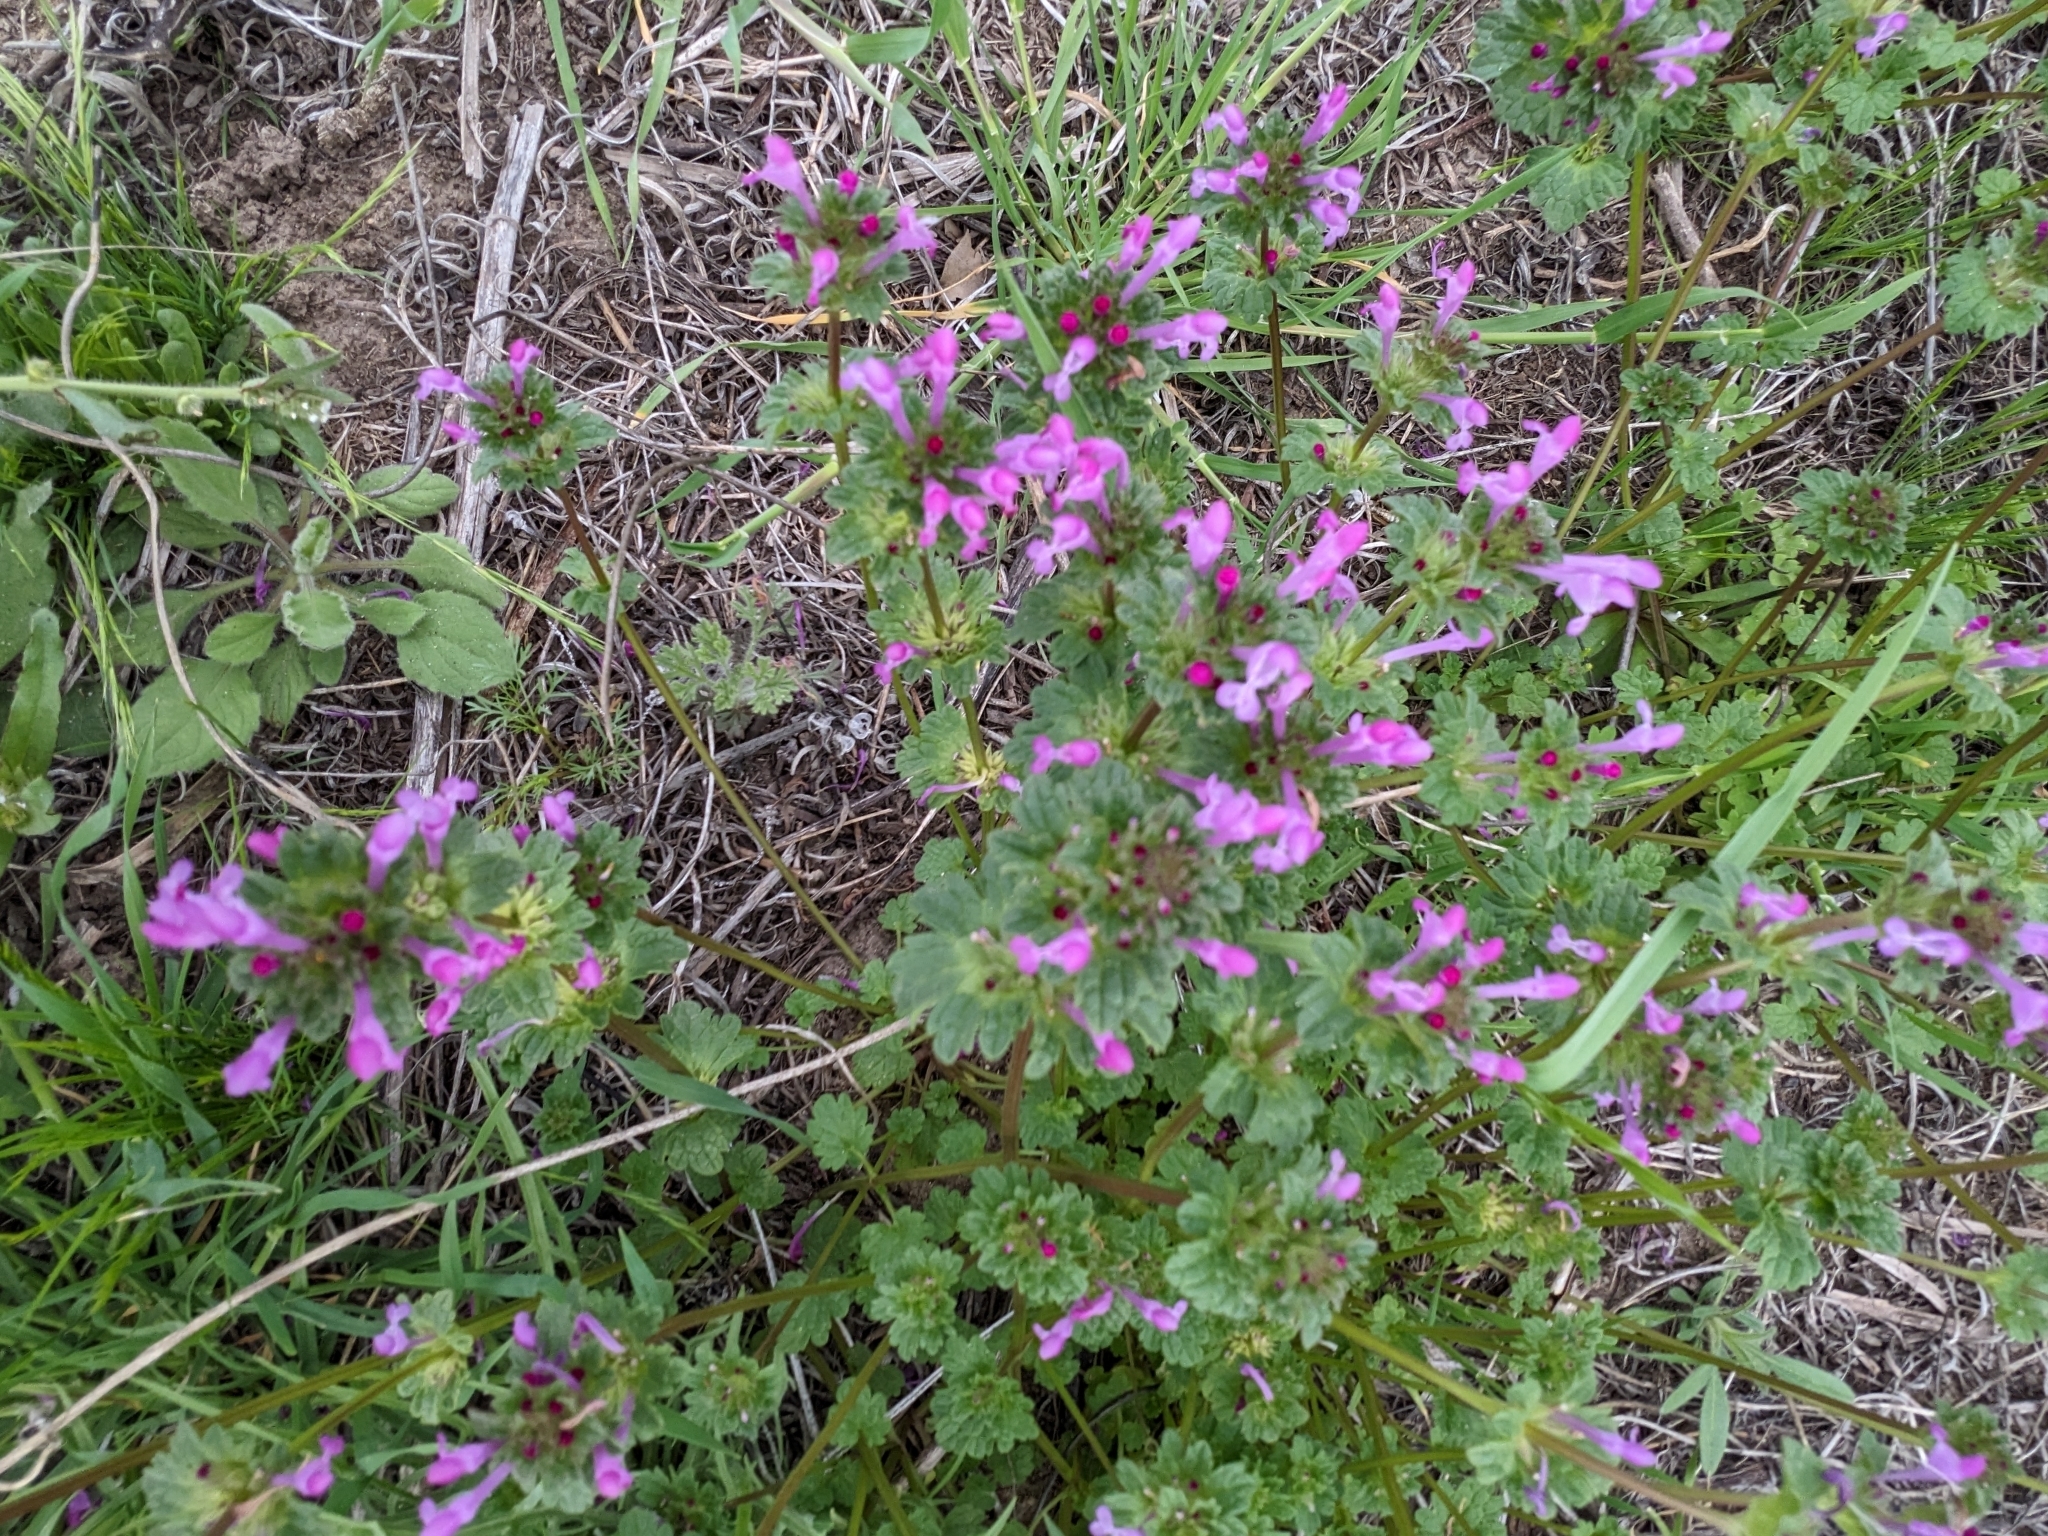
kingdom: Plantae
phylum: Tracheophyta
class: Magnoliopsida
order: Lamiales
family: Lamiaceae
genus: Lamium
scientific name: Lamium amplexicaule
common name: Henbit dead-nettle
